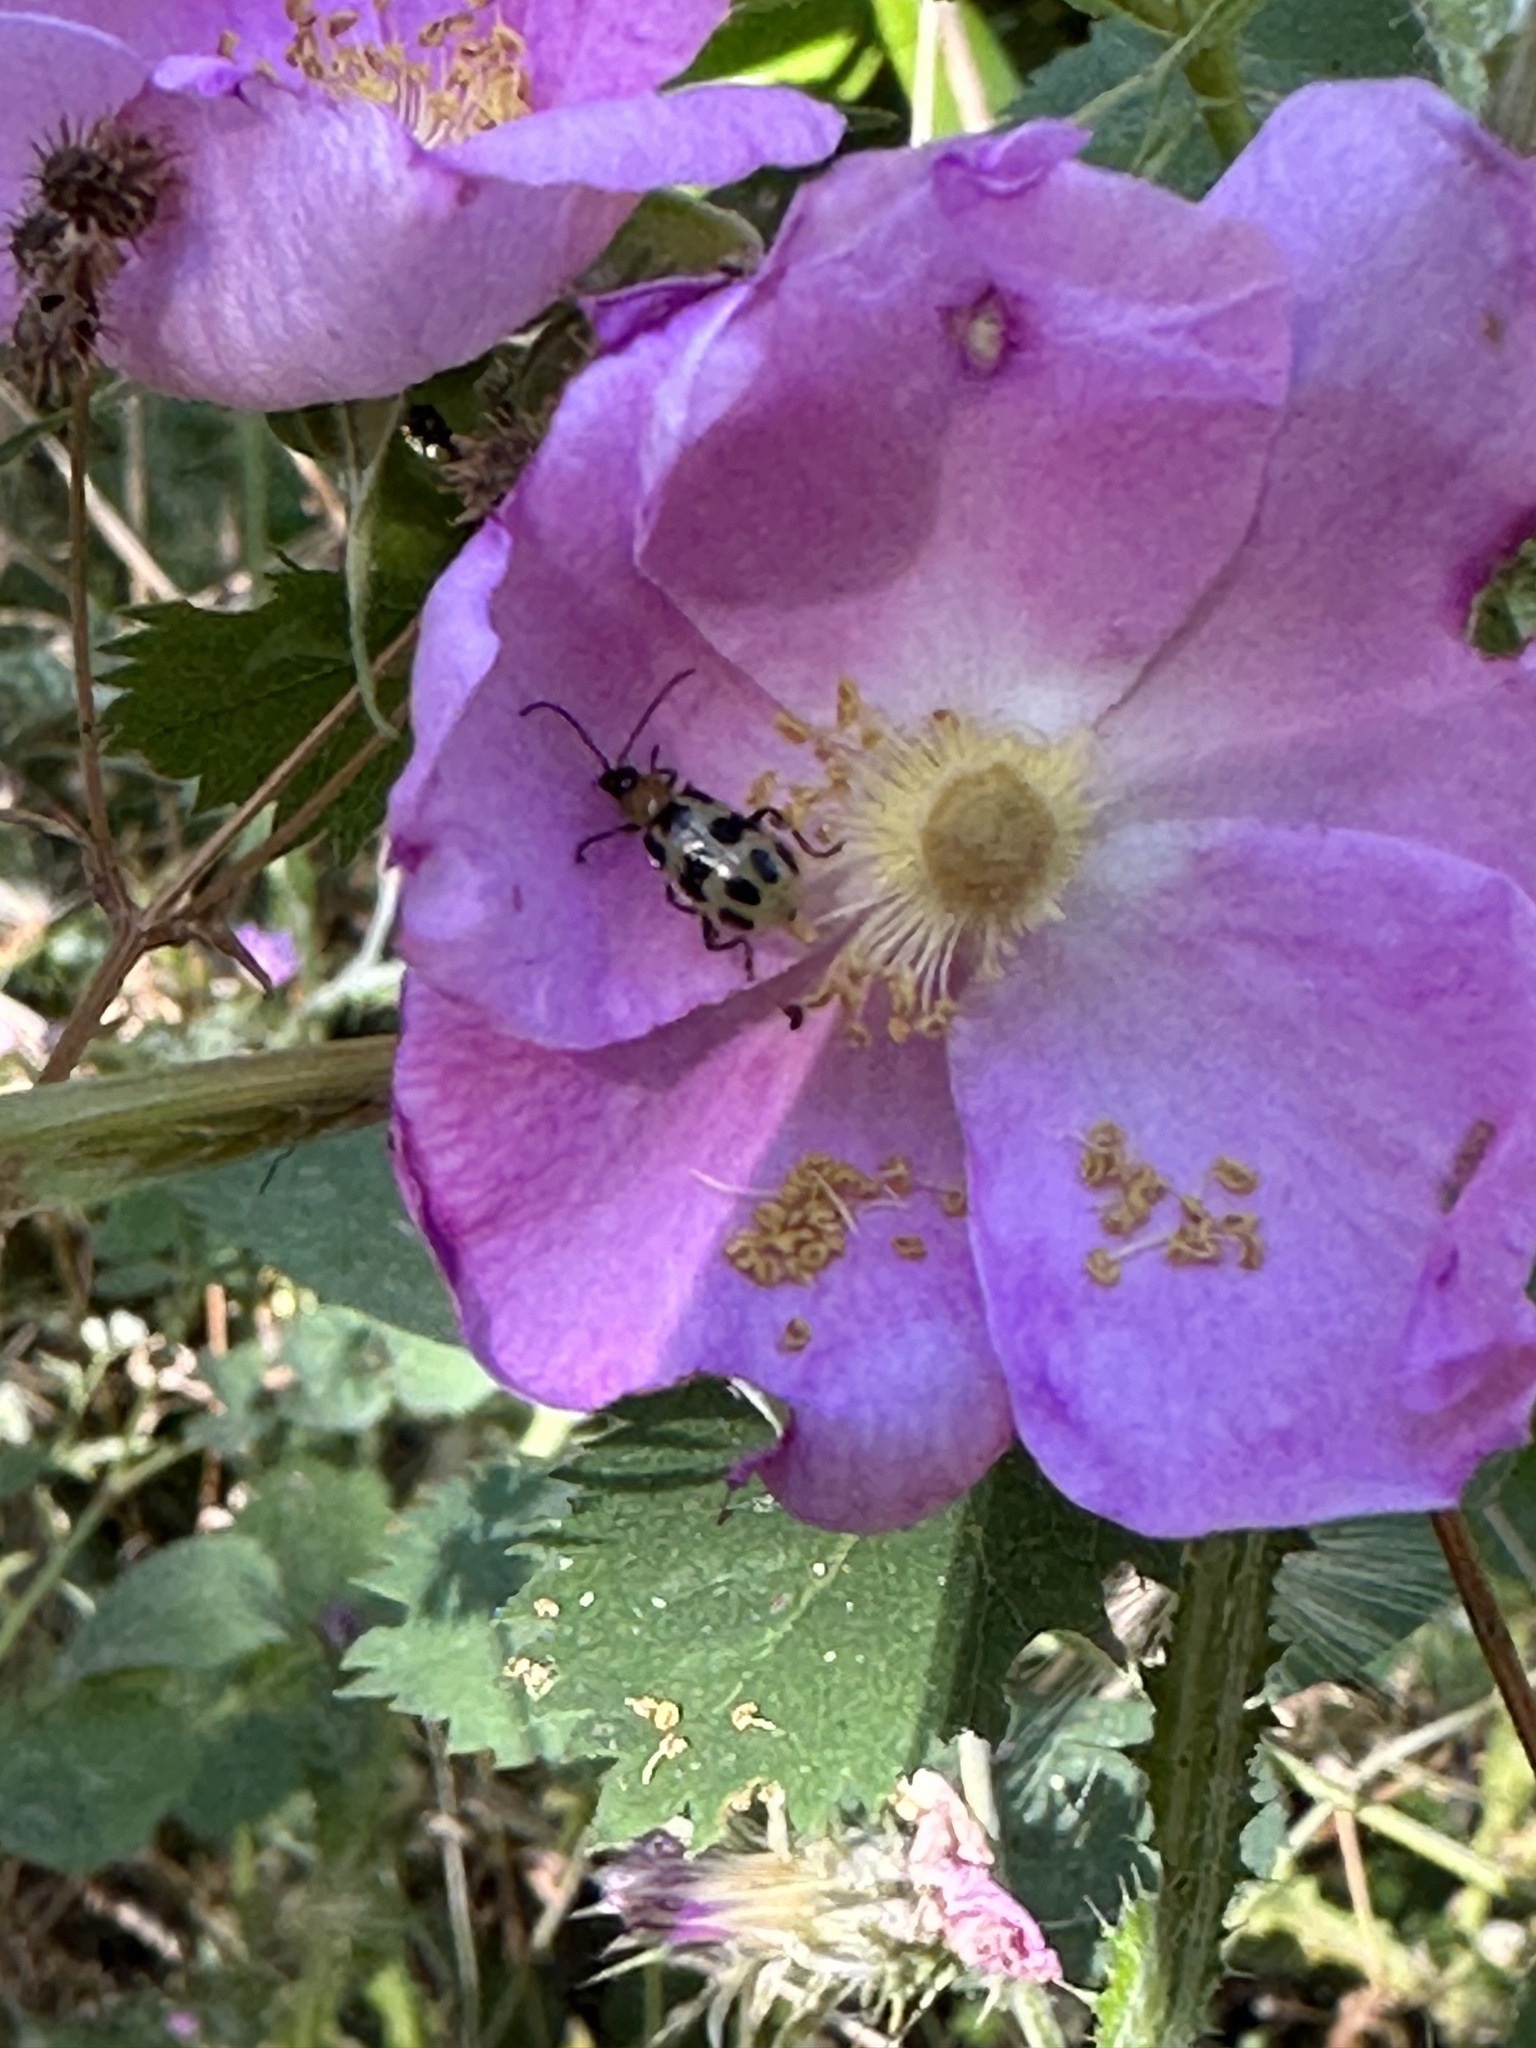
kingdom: Animalia
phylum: Arthropoda
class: Insecta
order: Coleoptera
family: Chrysomelidae
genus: Diabrotica
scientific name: Diabrotica undecimpunctata
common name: Spotted cucumber beetle
